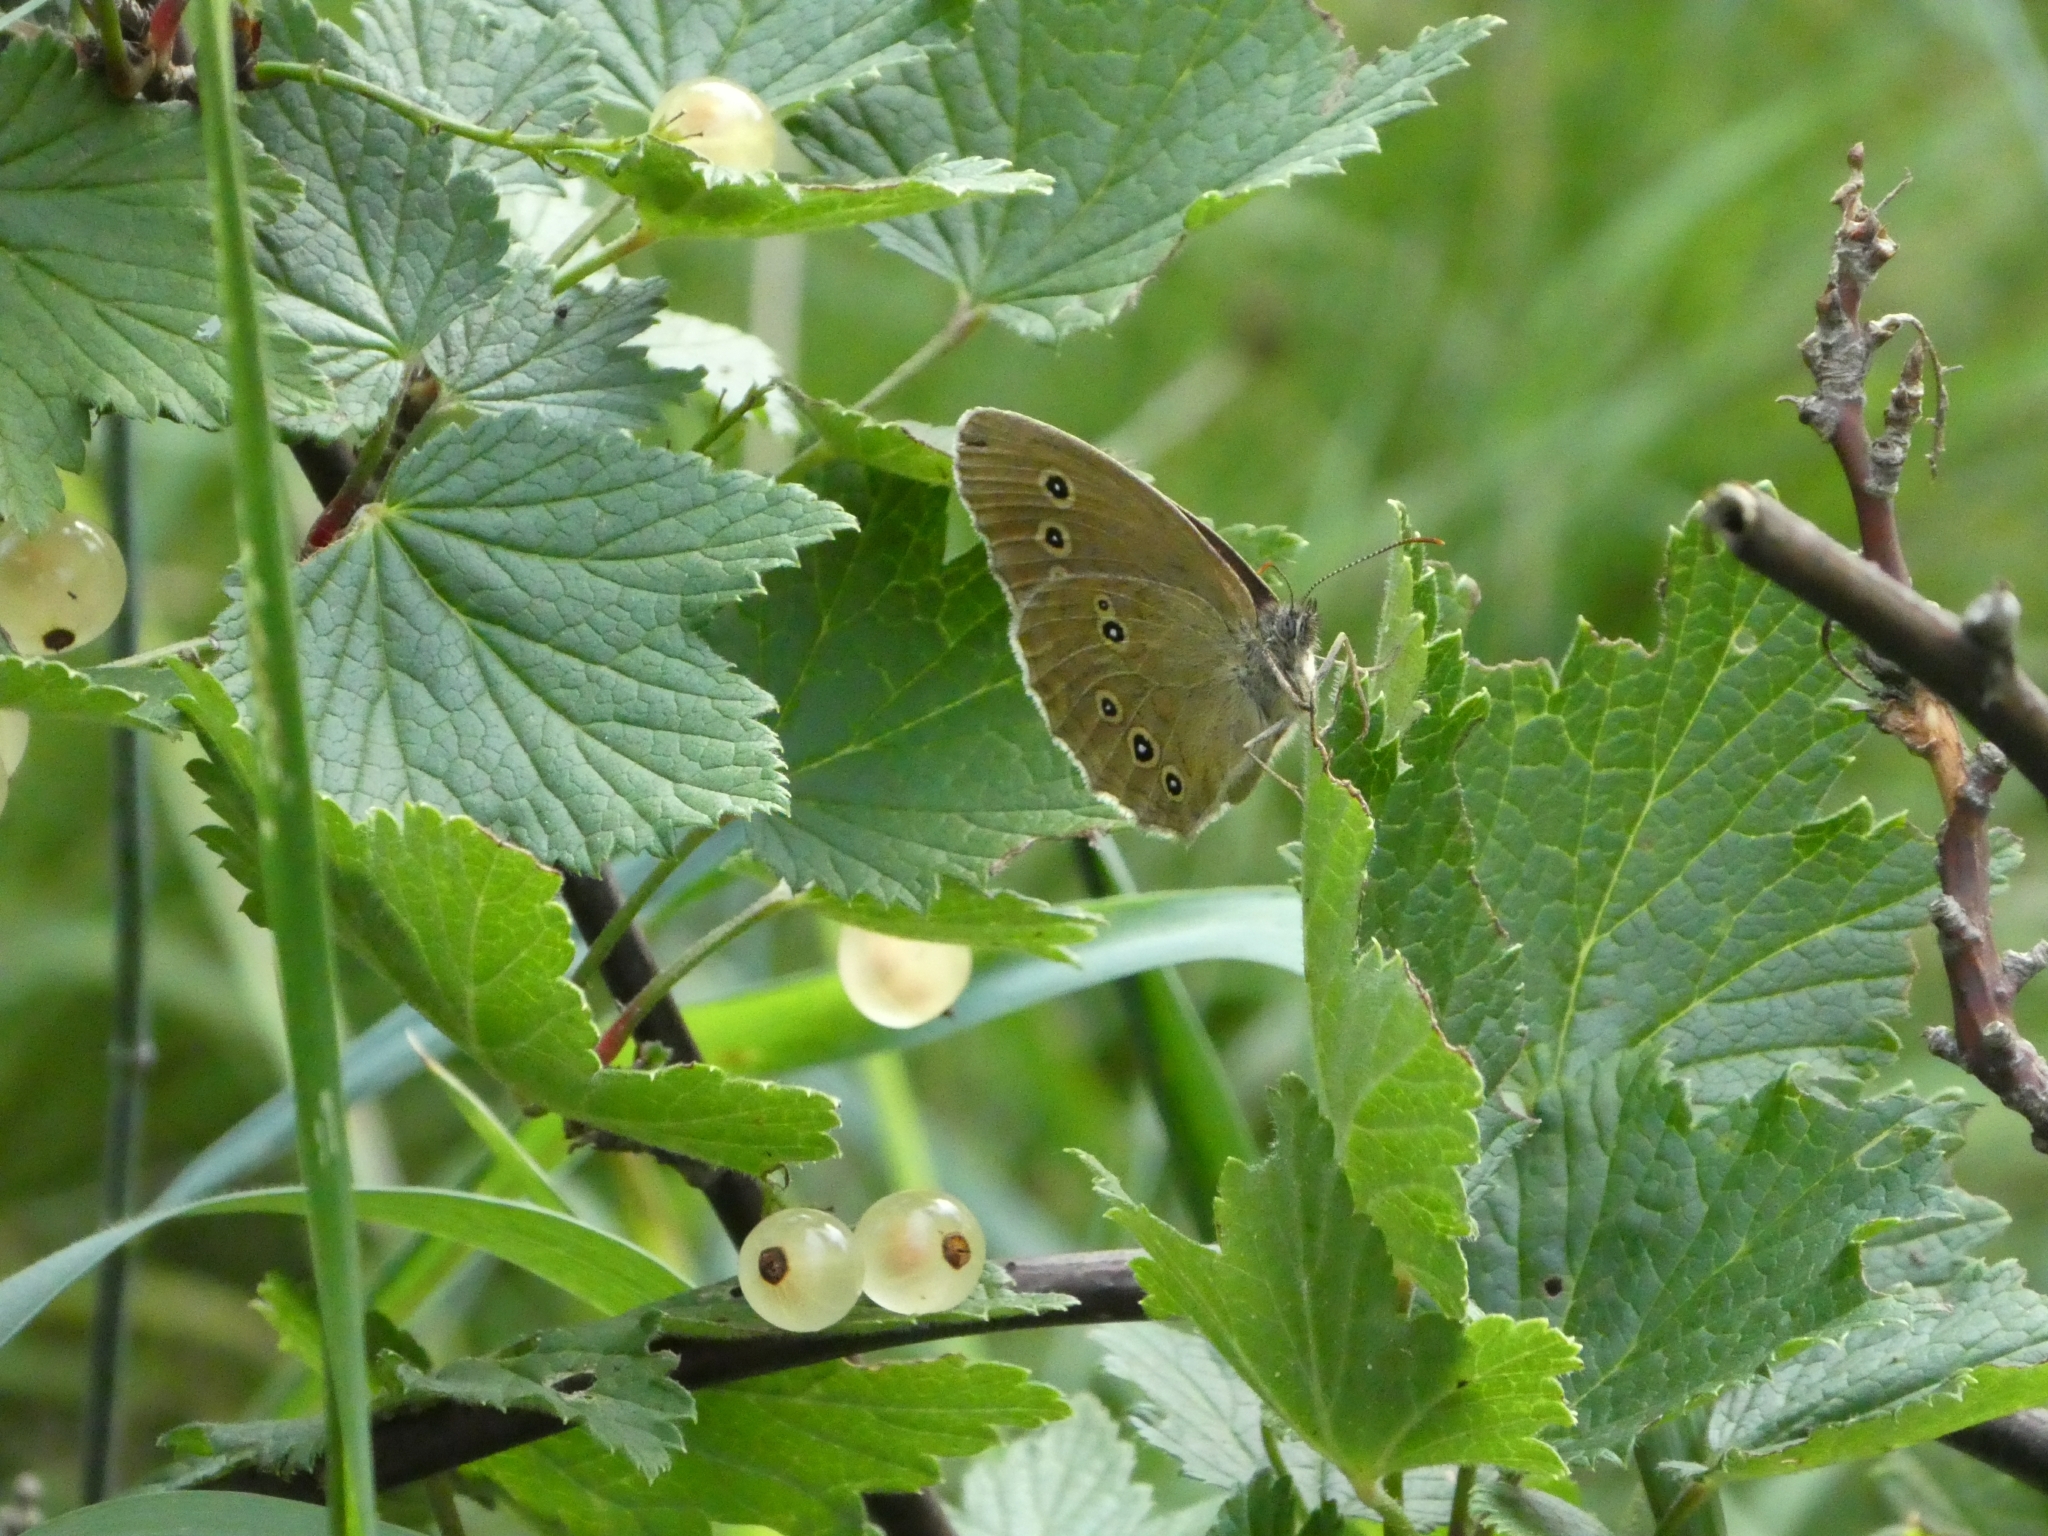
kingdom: Animalia
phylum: Arthropoda
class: Insecta
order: Lepidoptera
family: Nymphalidae
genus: Aphantopus
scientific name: Aphantopus hyperantus
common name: Ringlet
